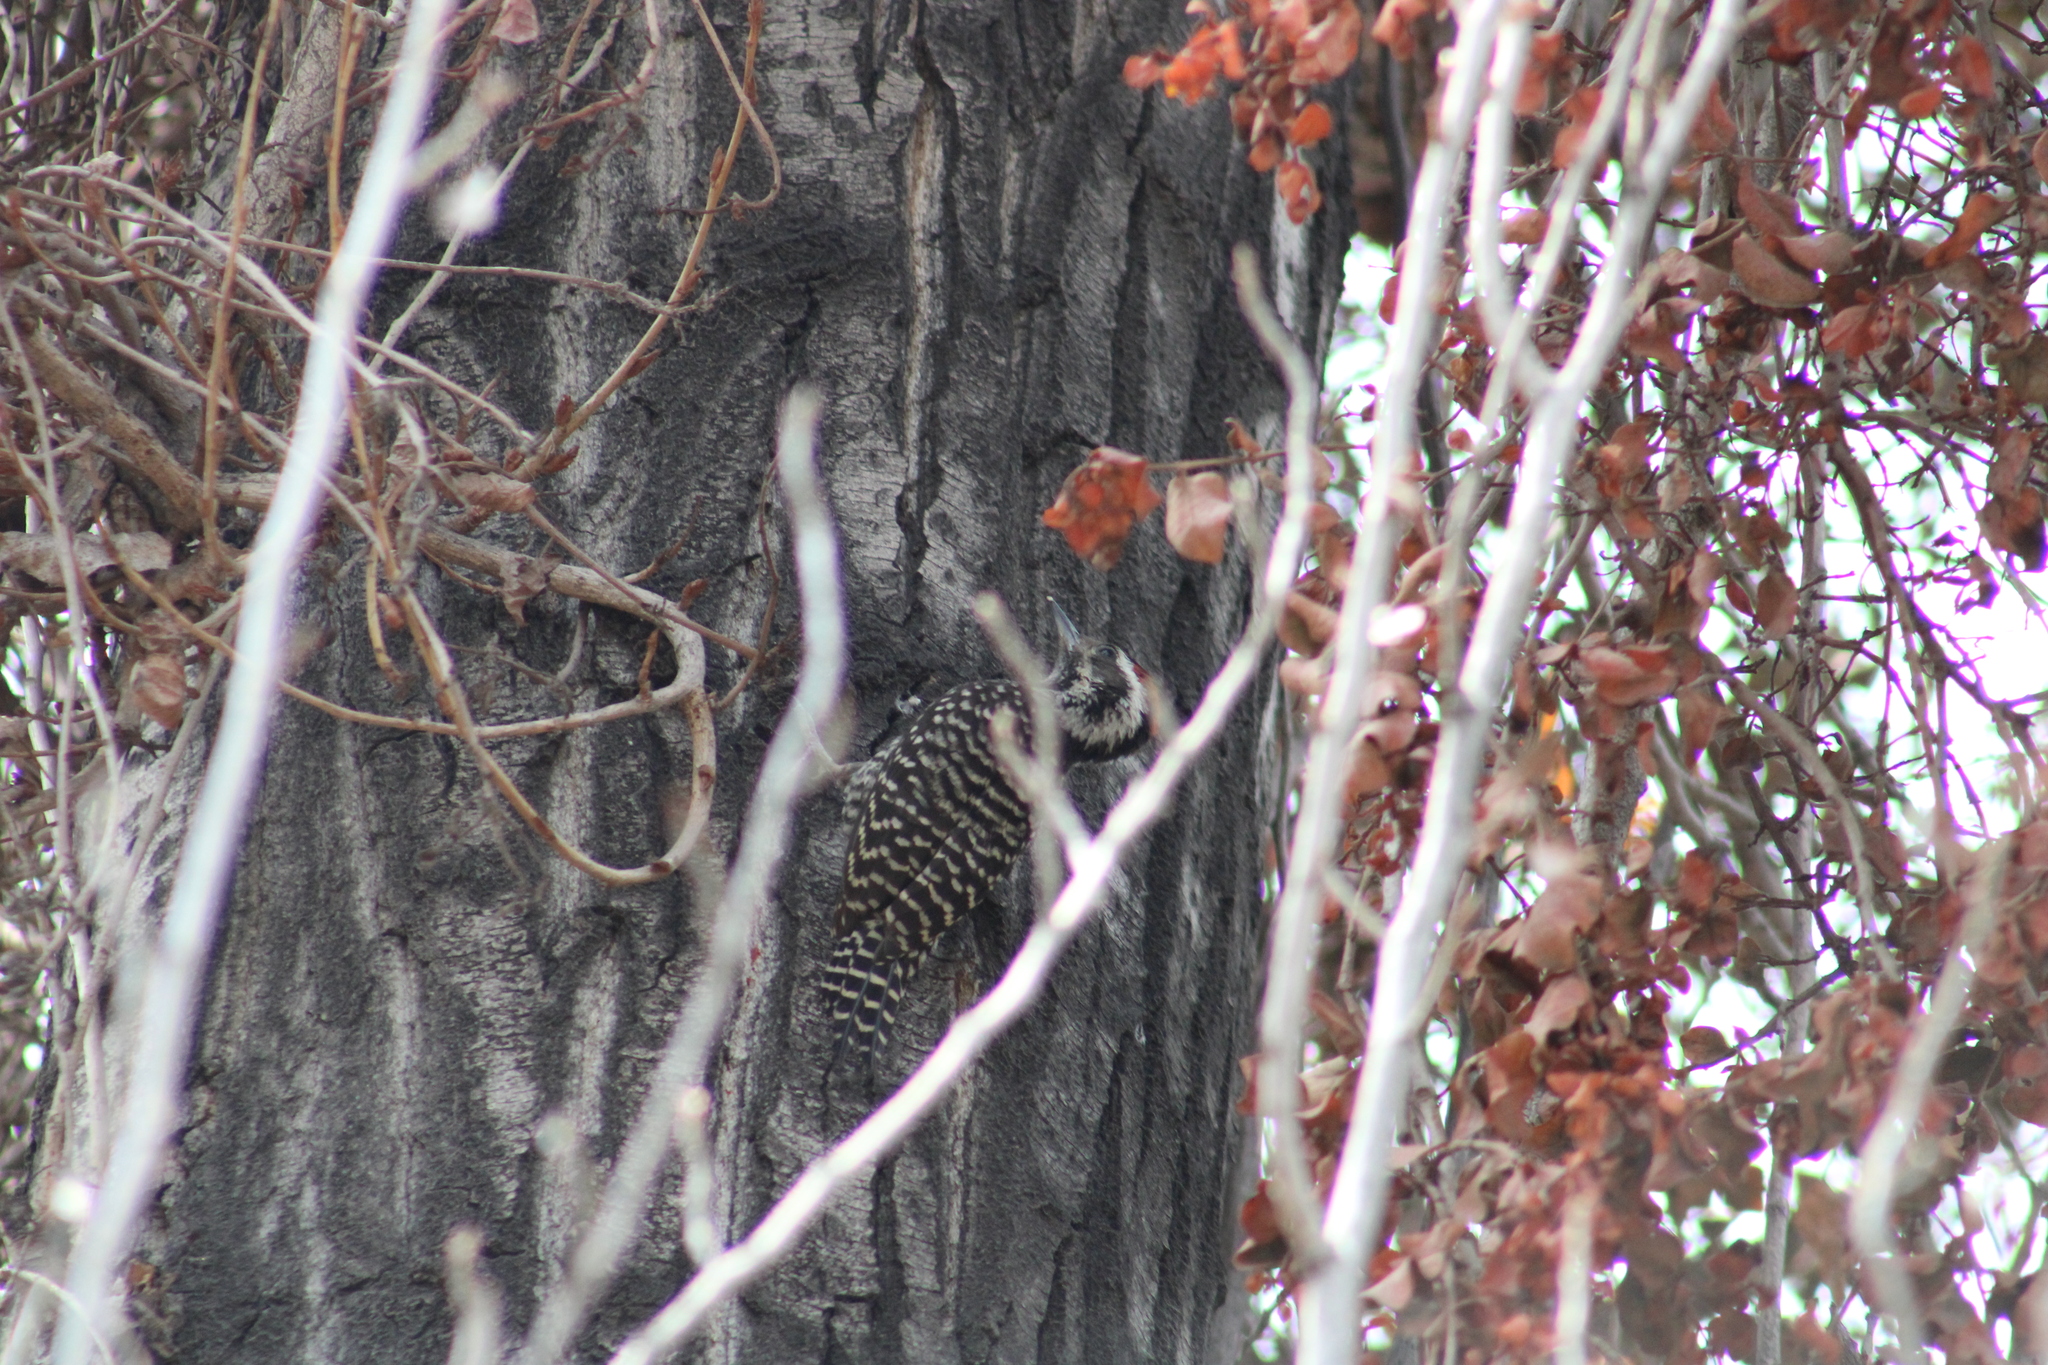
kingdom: Animalia
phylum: Chordata
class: Aves
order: Piciformes
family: Picidae
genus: Veniliornis
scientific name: Veniliornis lignarius
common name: Striped woodpecker
